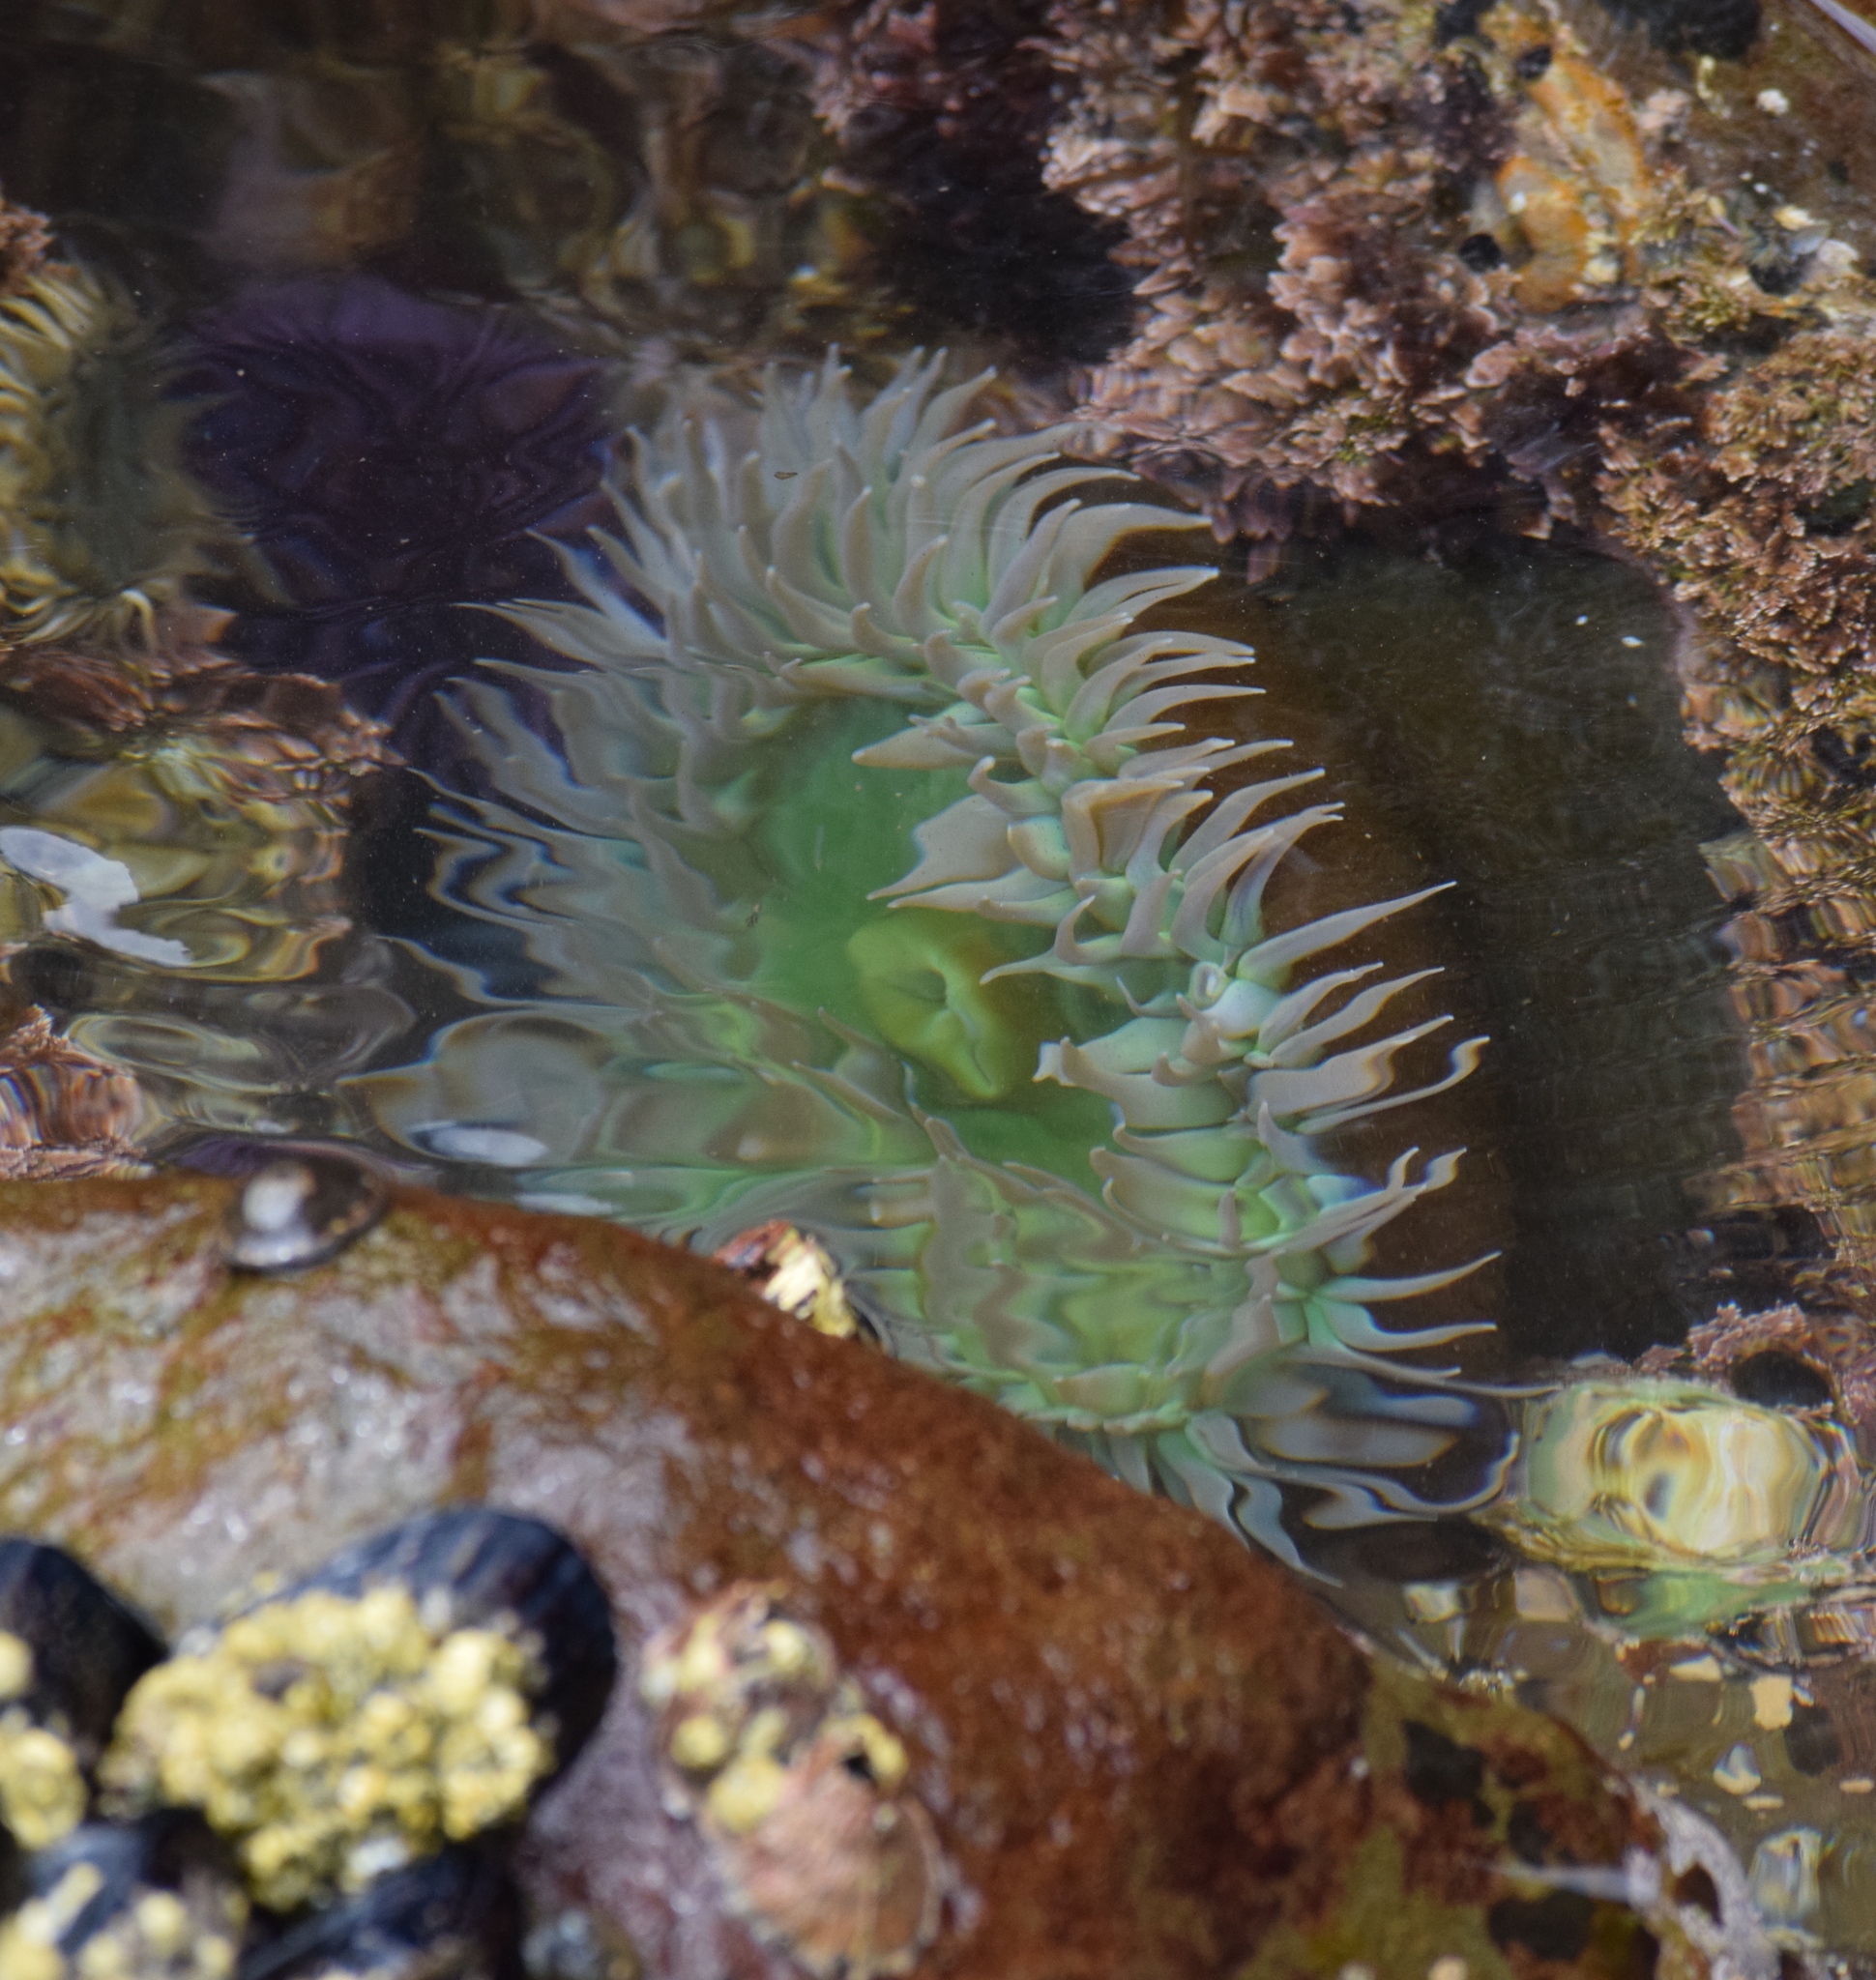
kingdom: Animalia
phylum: Cnidaria
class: Anthozoa
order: Actiniaria
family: Actiniidae
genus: Anthopleura
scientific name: Anthopleura xanthogrammica
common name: Giant green anemone
